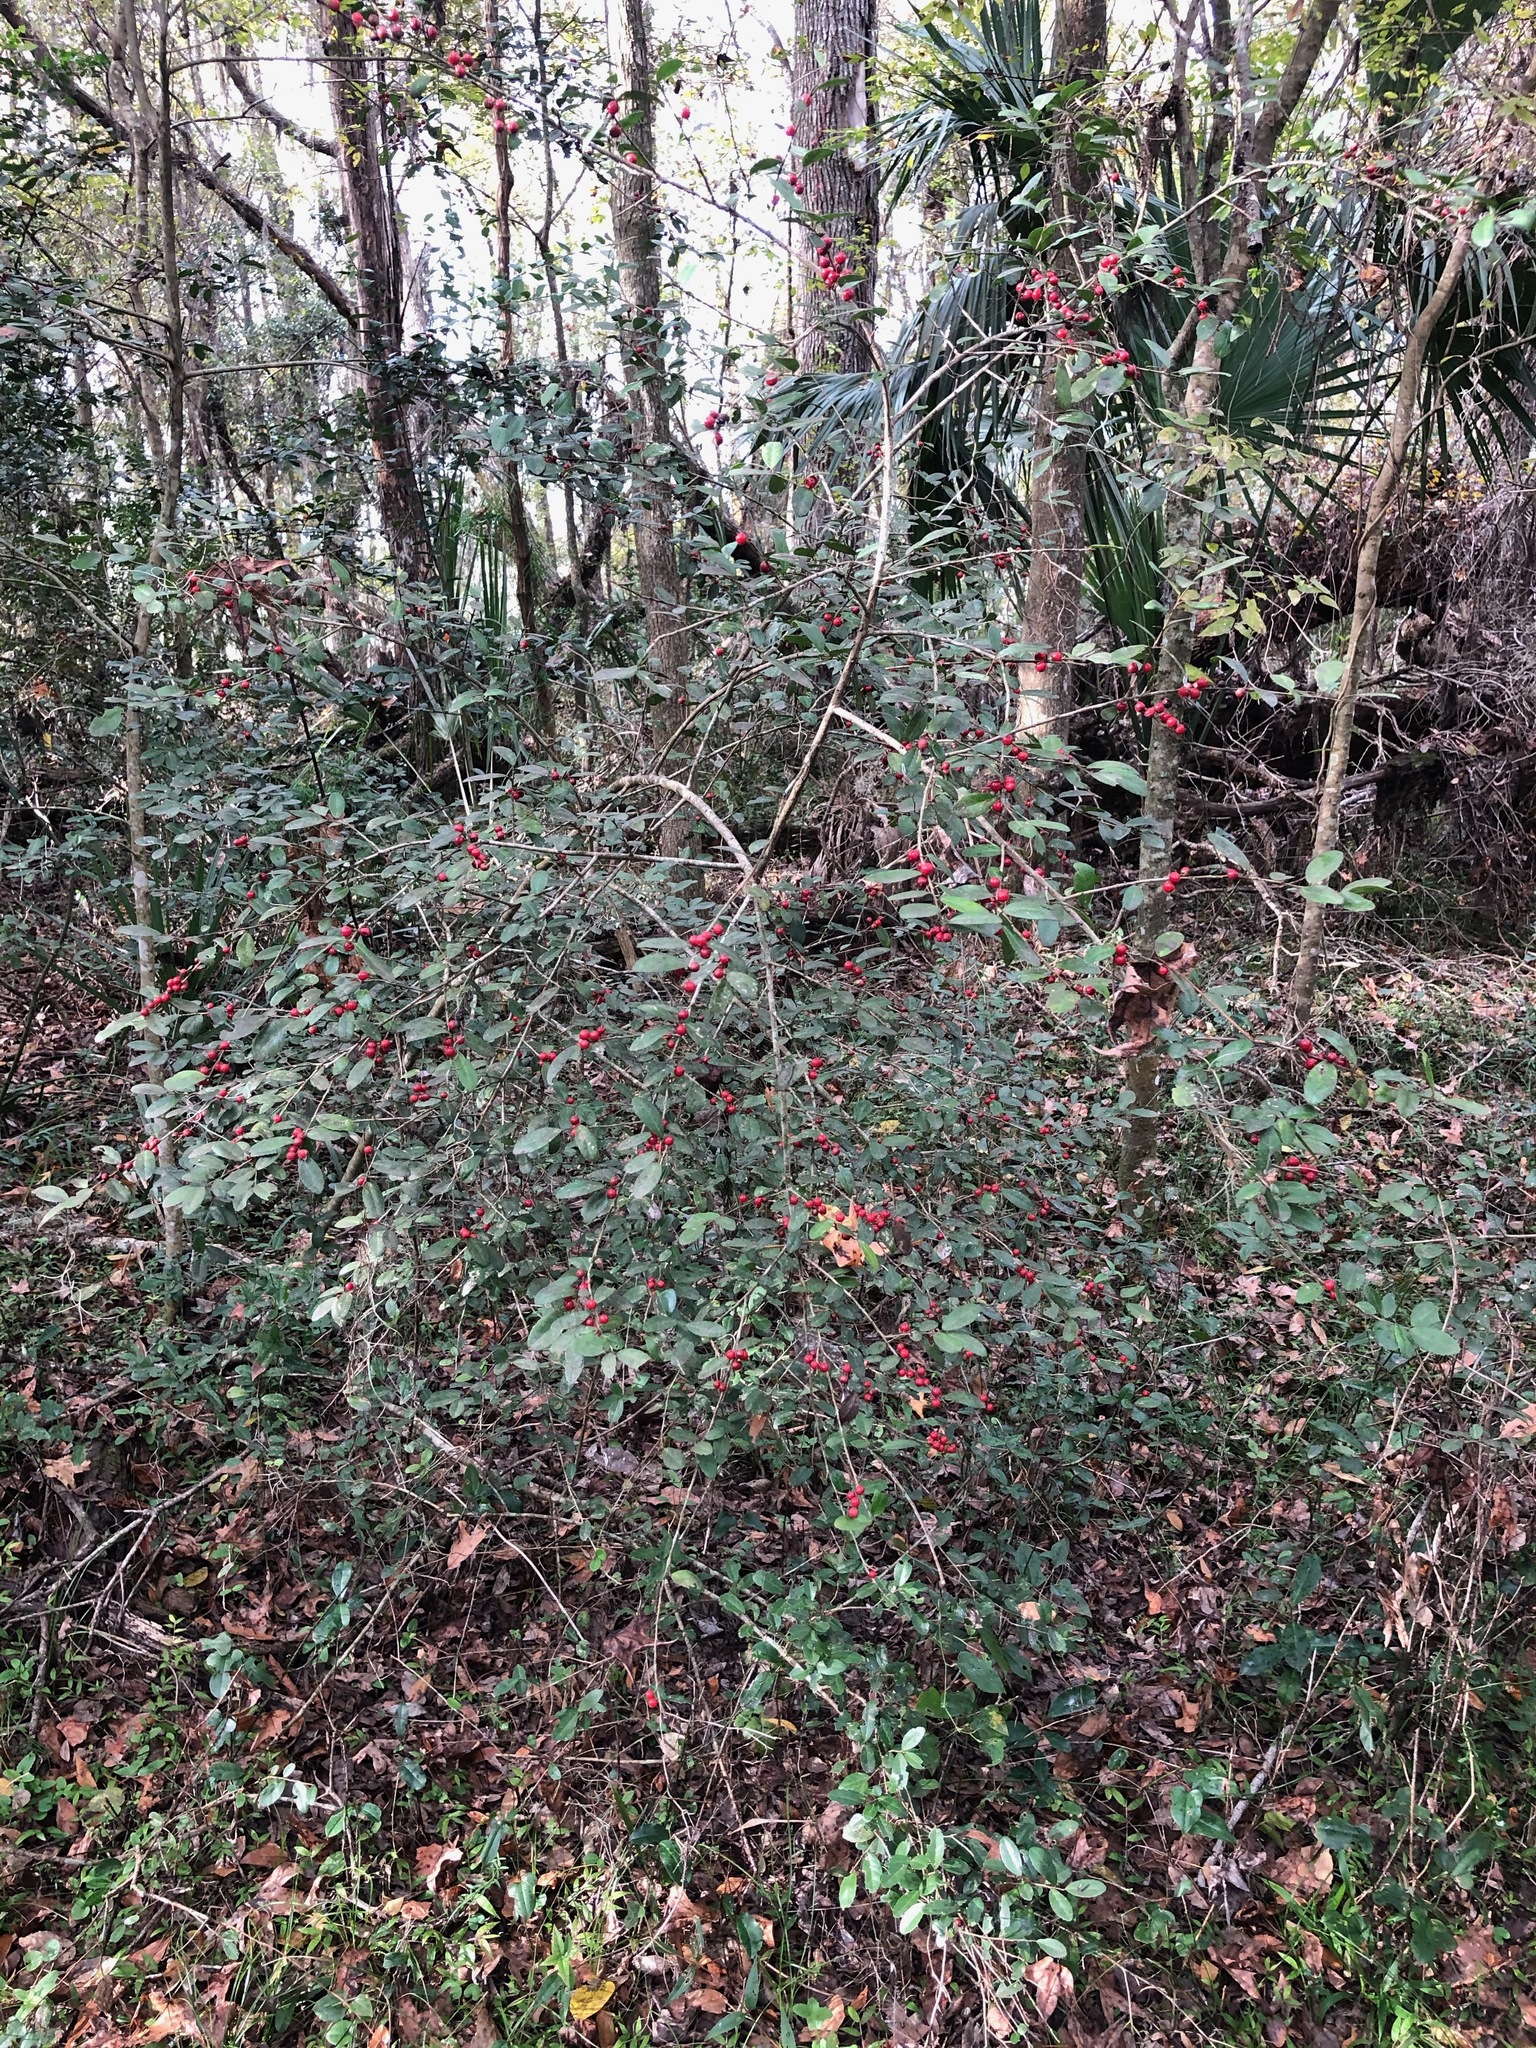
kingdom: Plantae
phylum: Tracheophyta
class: Magnoliopsida
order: Aquifoliales
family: Aquifoliaceae
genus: Ilex
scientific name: Ilex vomitoria
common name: Yaupon holly
